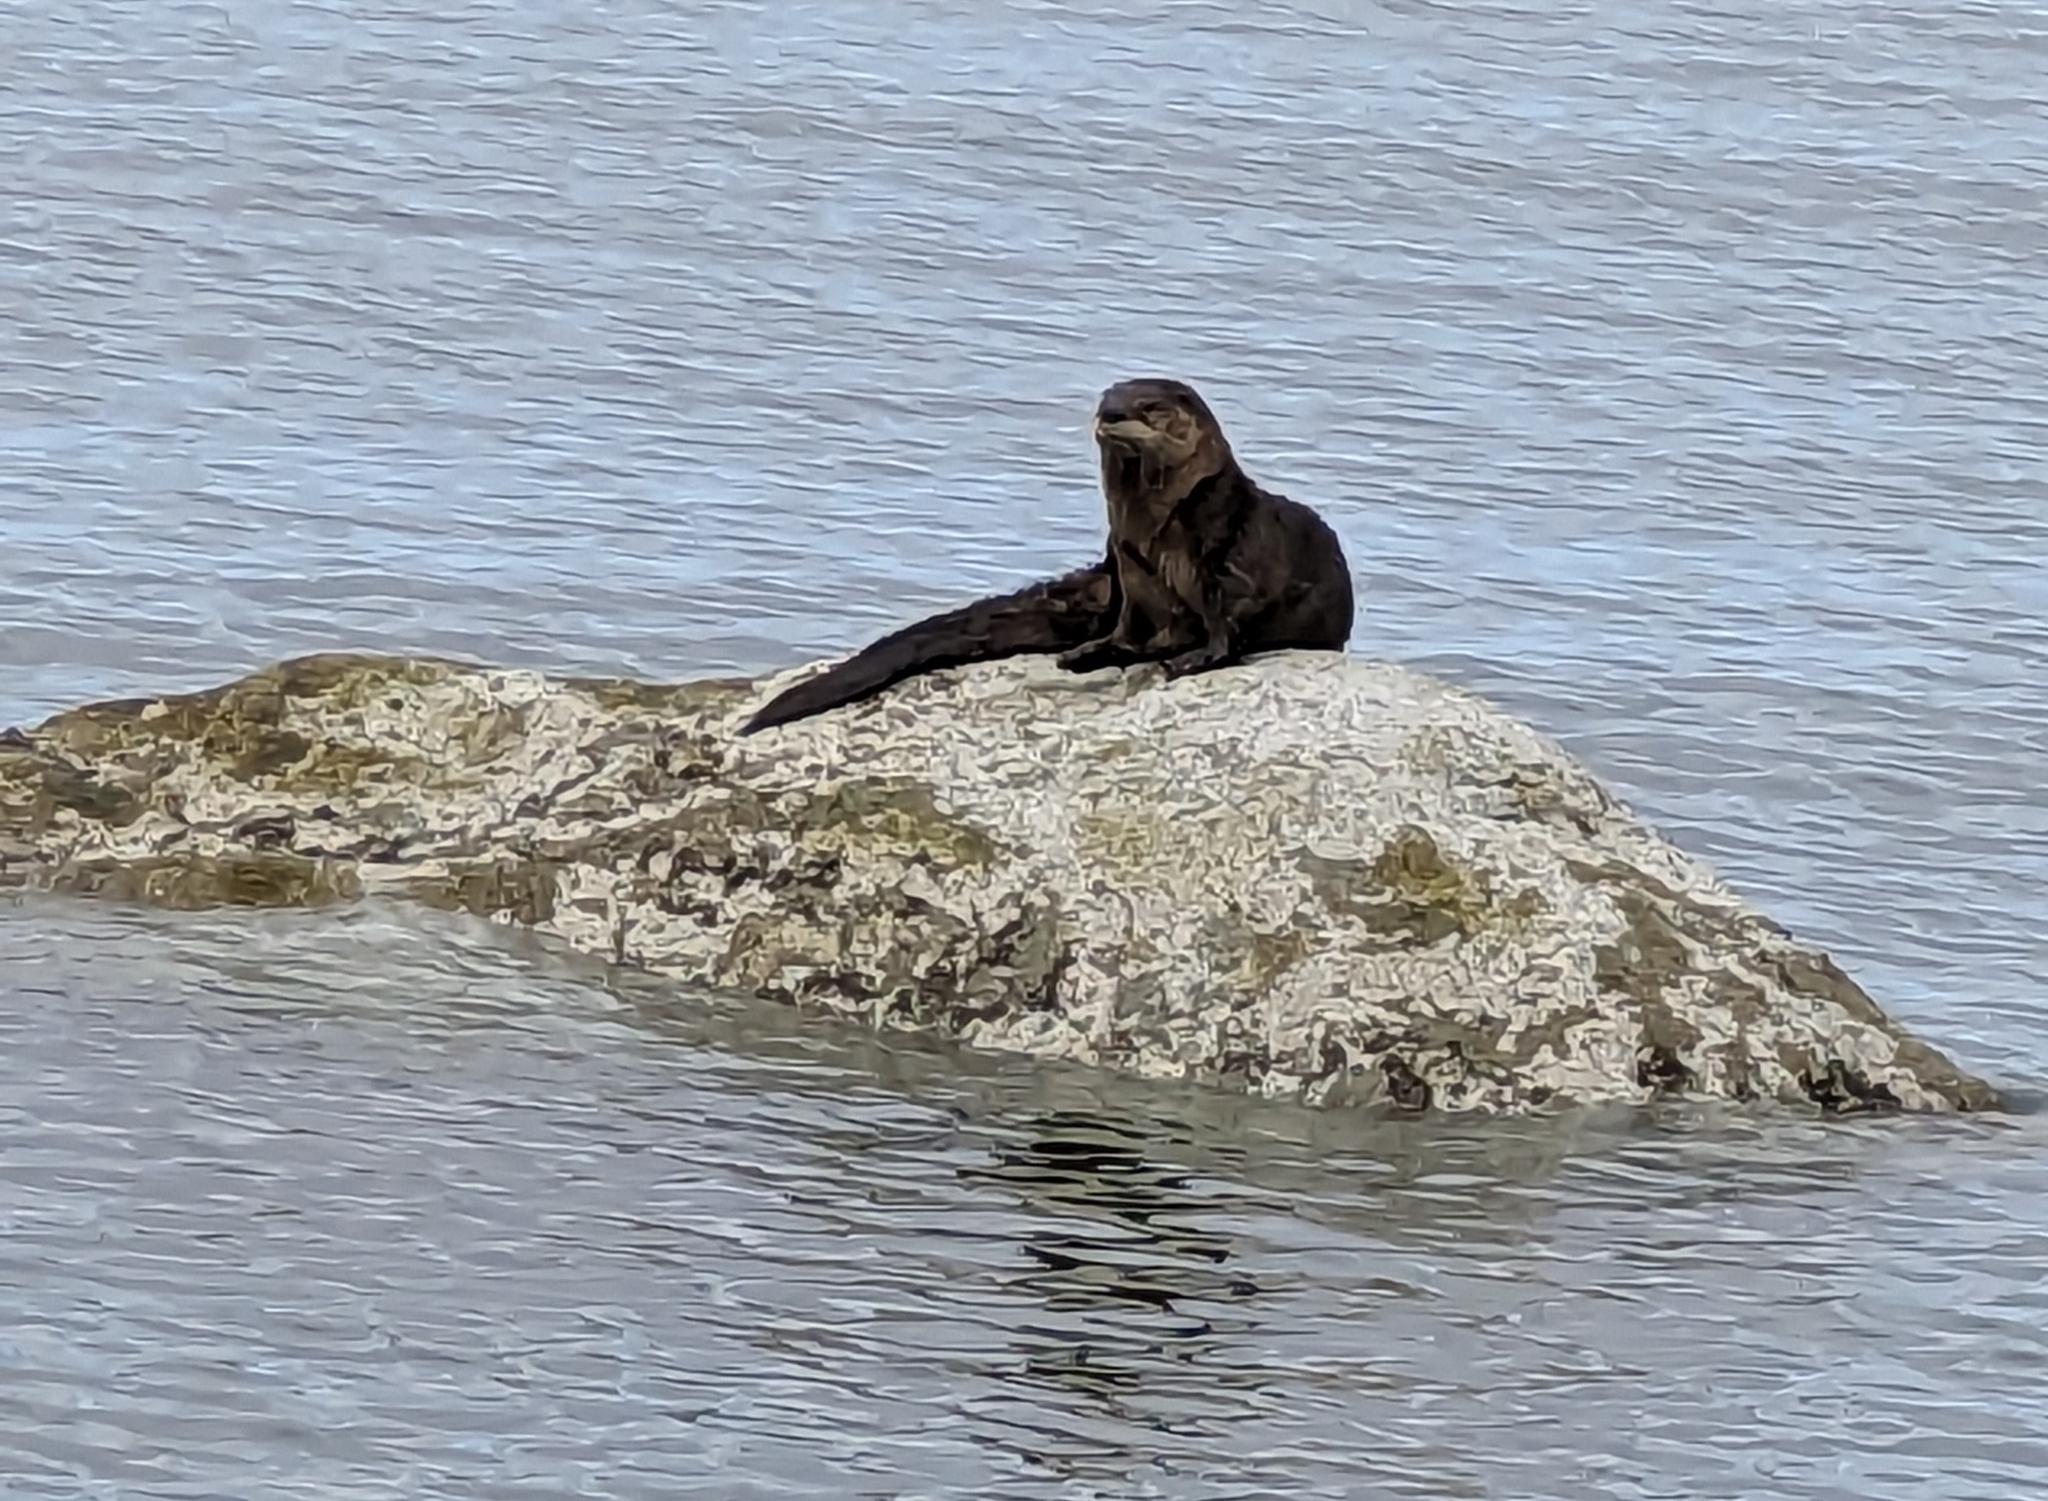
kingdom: Animalia
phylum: Chordata
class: Mammalia
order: Carnivora
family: Mustelidae
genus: Lontra
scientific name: Lontra canadensis
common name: North american river otter
